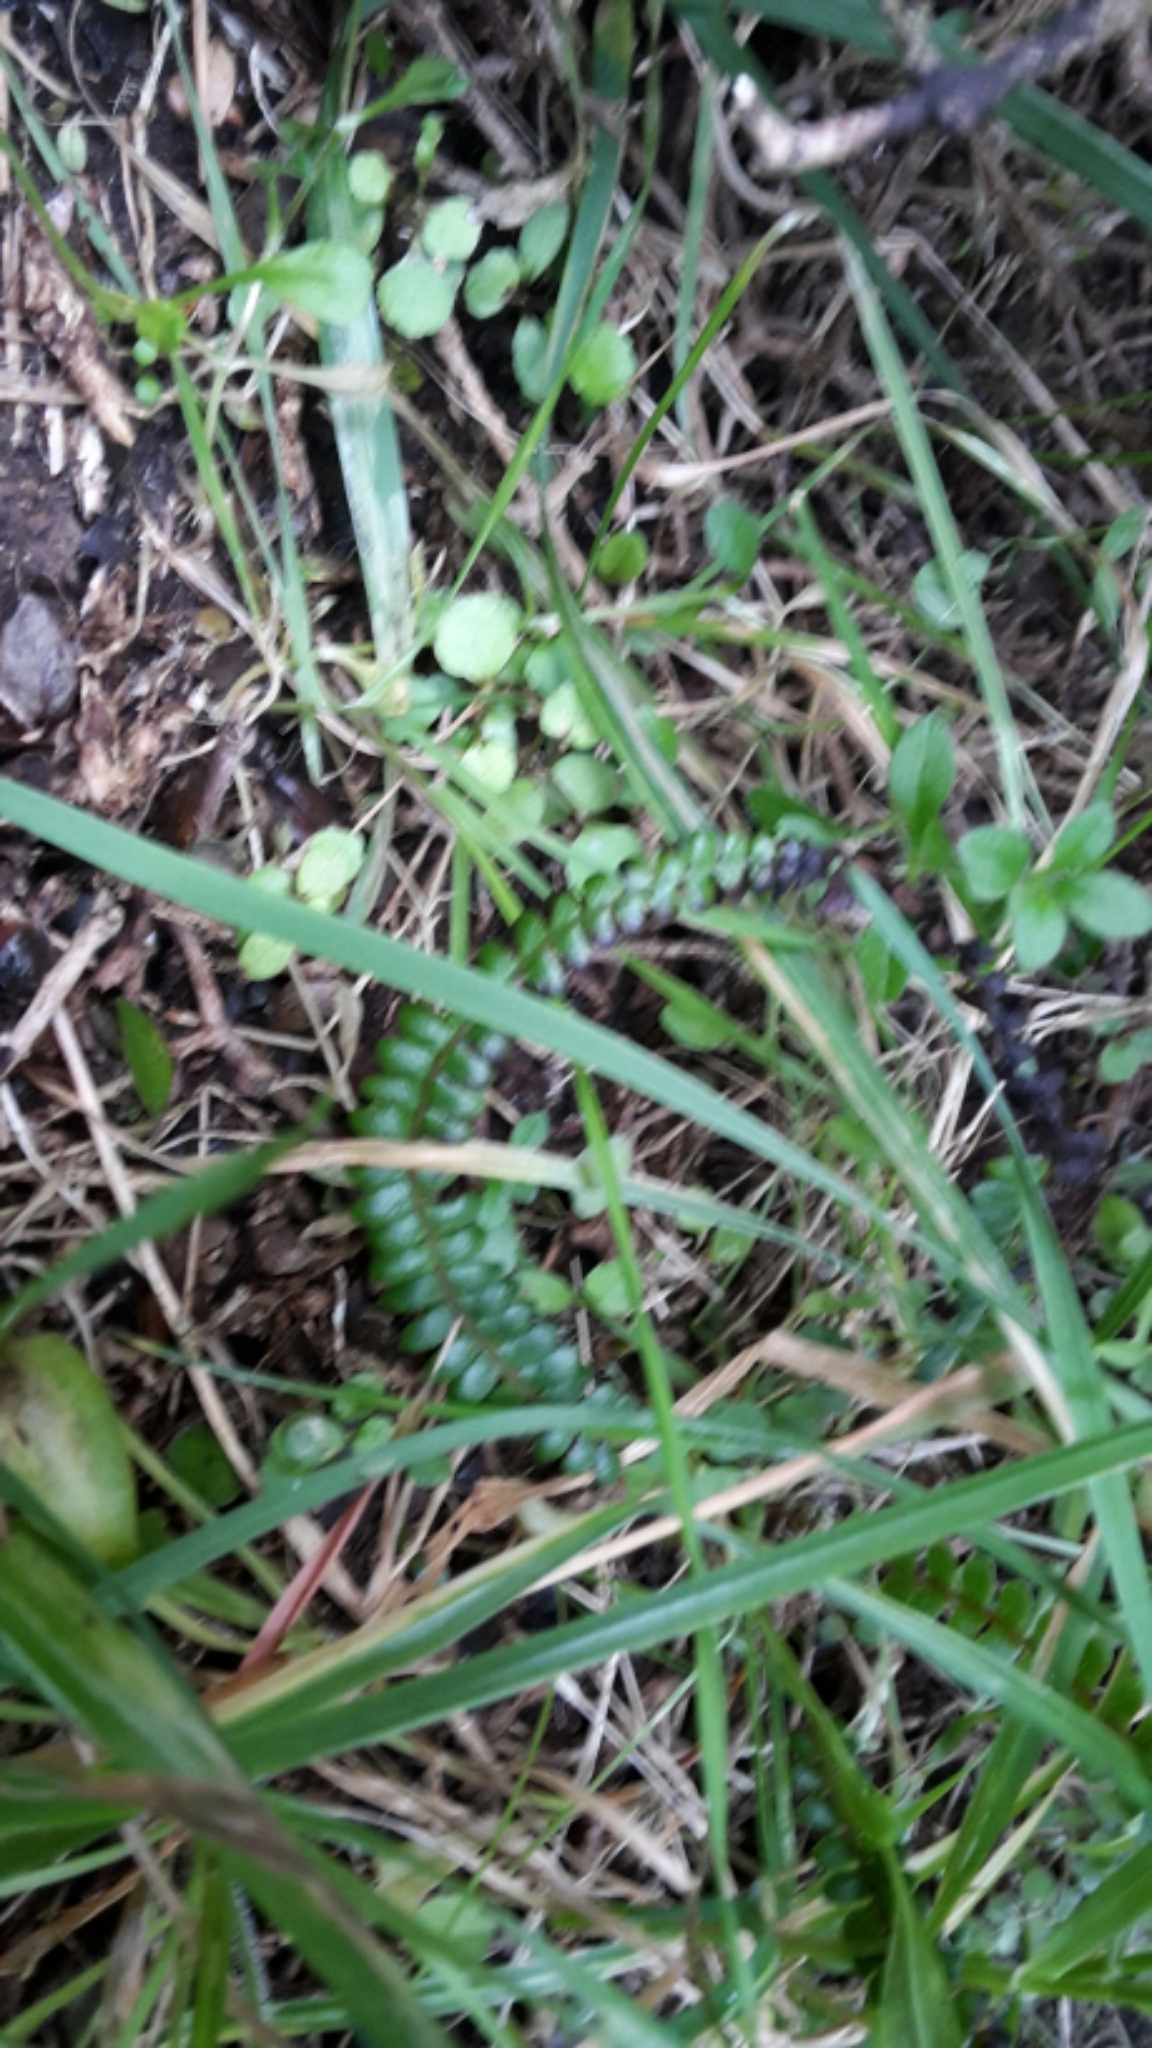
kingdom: Plantae
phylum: Tracheophyta
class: Polypodiopsida
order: Polypodiales
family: Blechnaceae
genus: Austroblechnum
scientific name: Austroblechnum penna-marina
